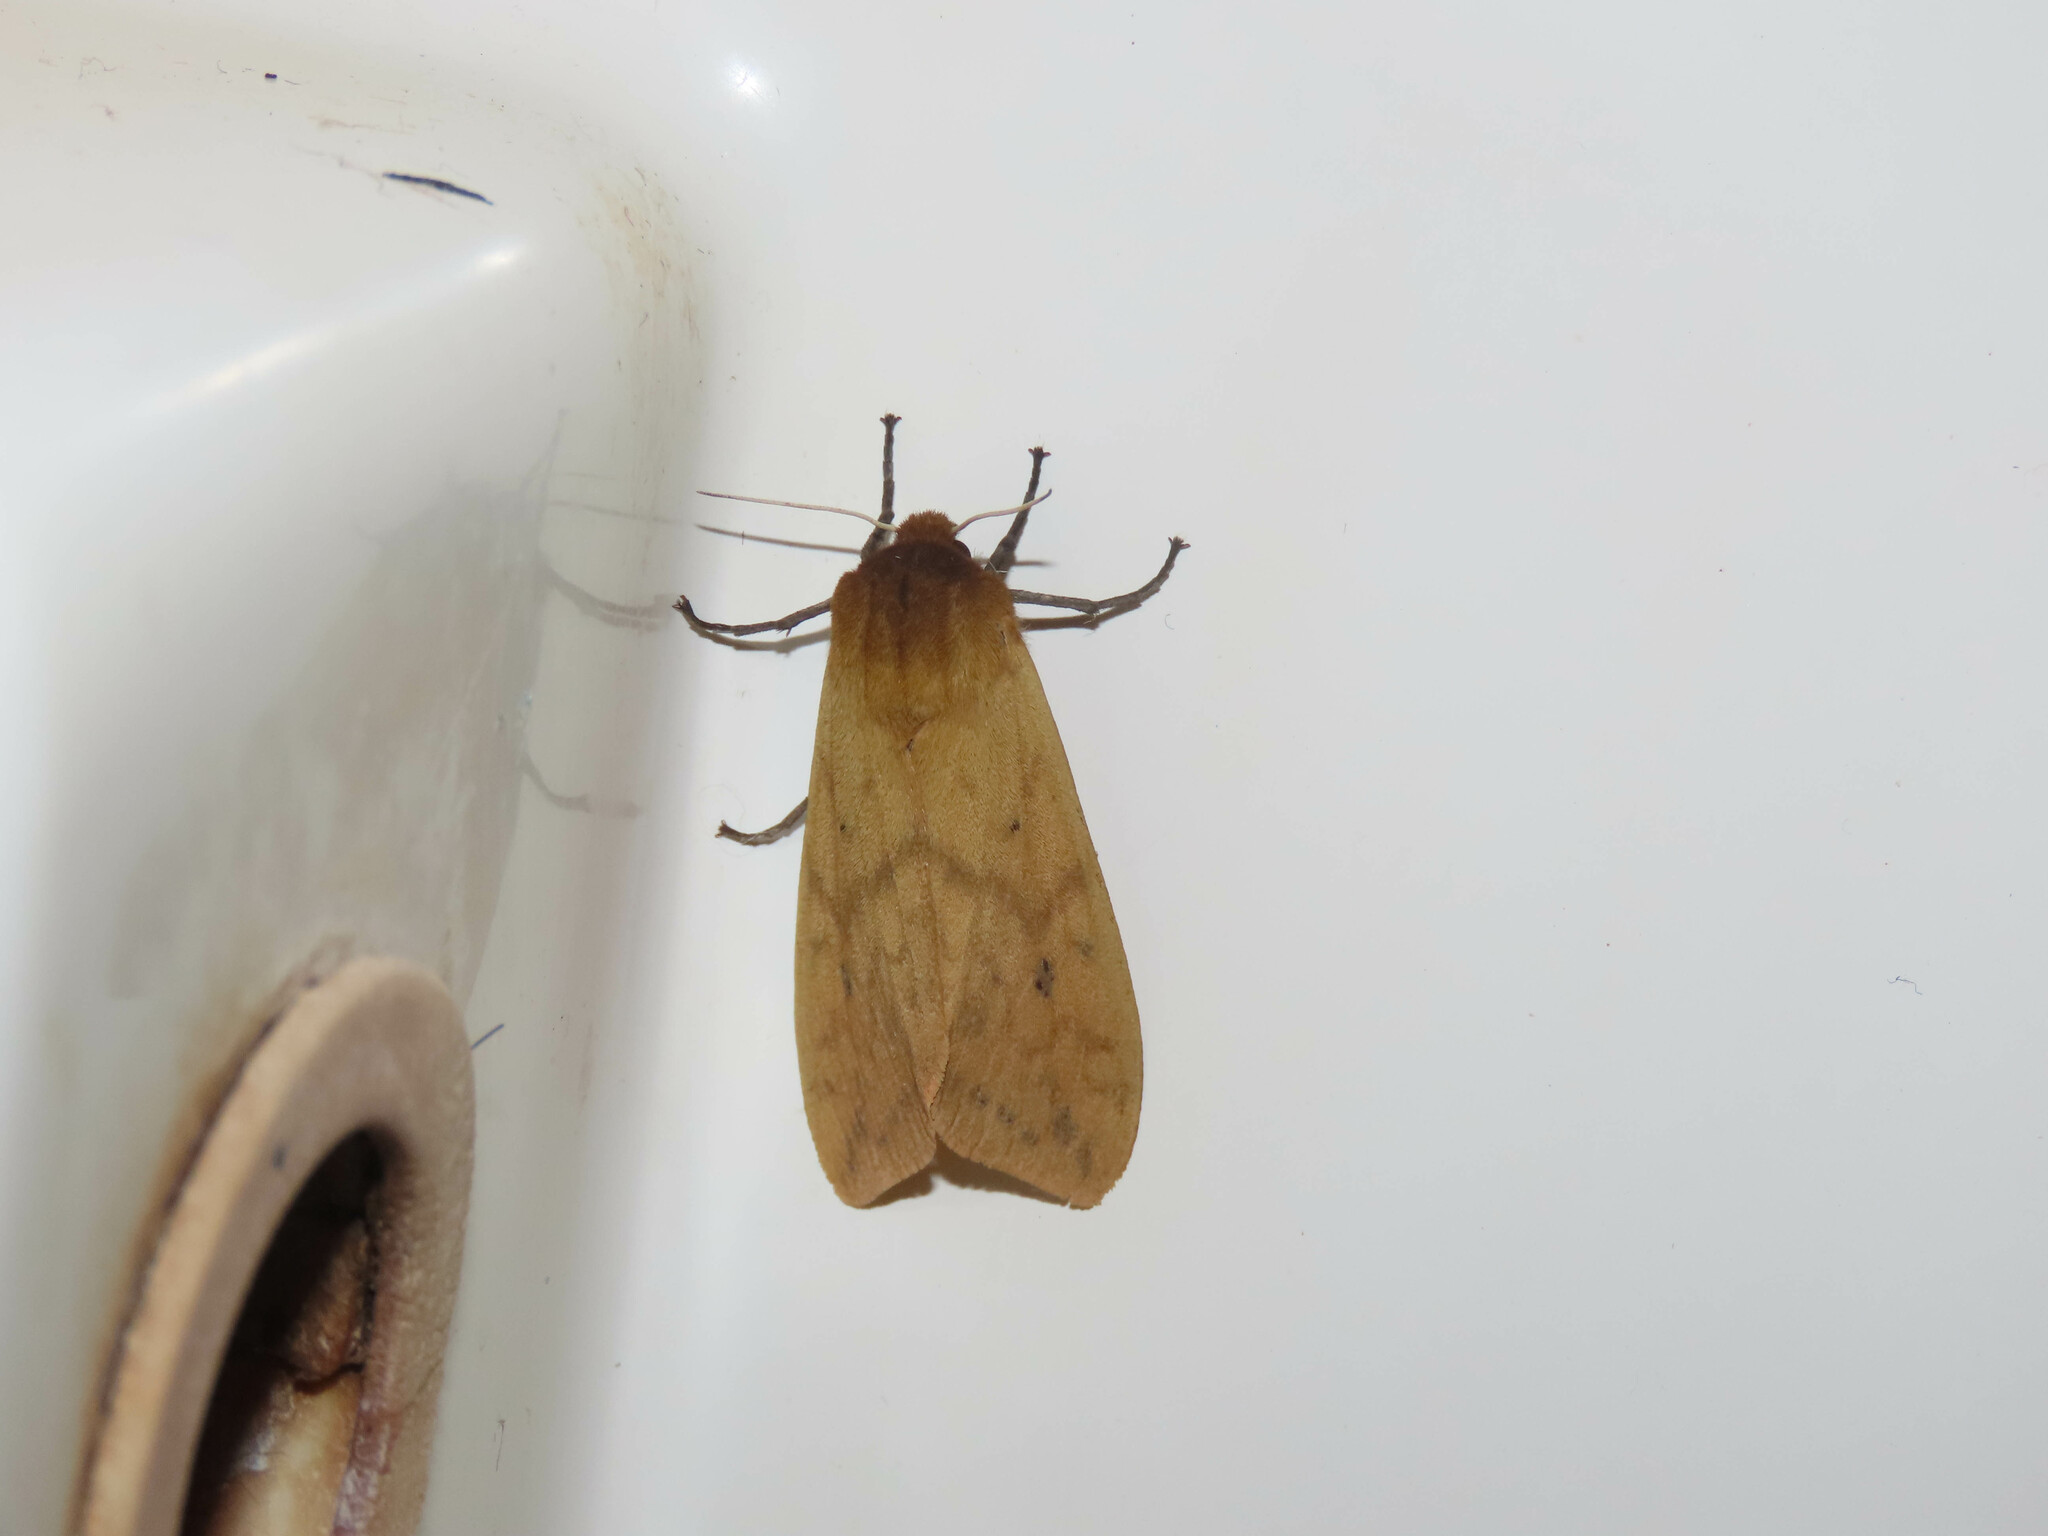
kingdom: Animalia
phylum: Arthropoda
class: Insecta
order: Lepidoptera
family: Erebidae
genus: Pyrrharctia
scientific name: Pyrrharctia isabella
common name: Isabella tiger moth
